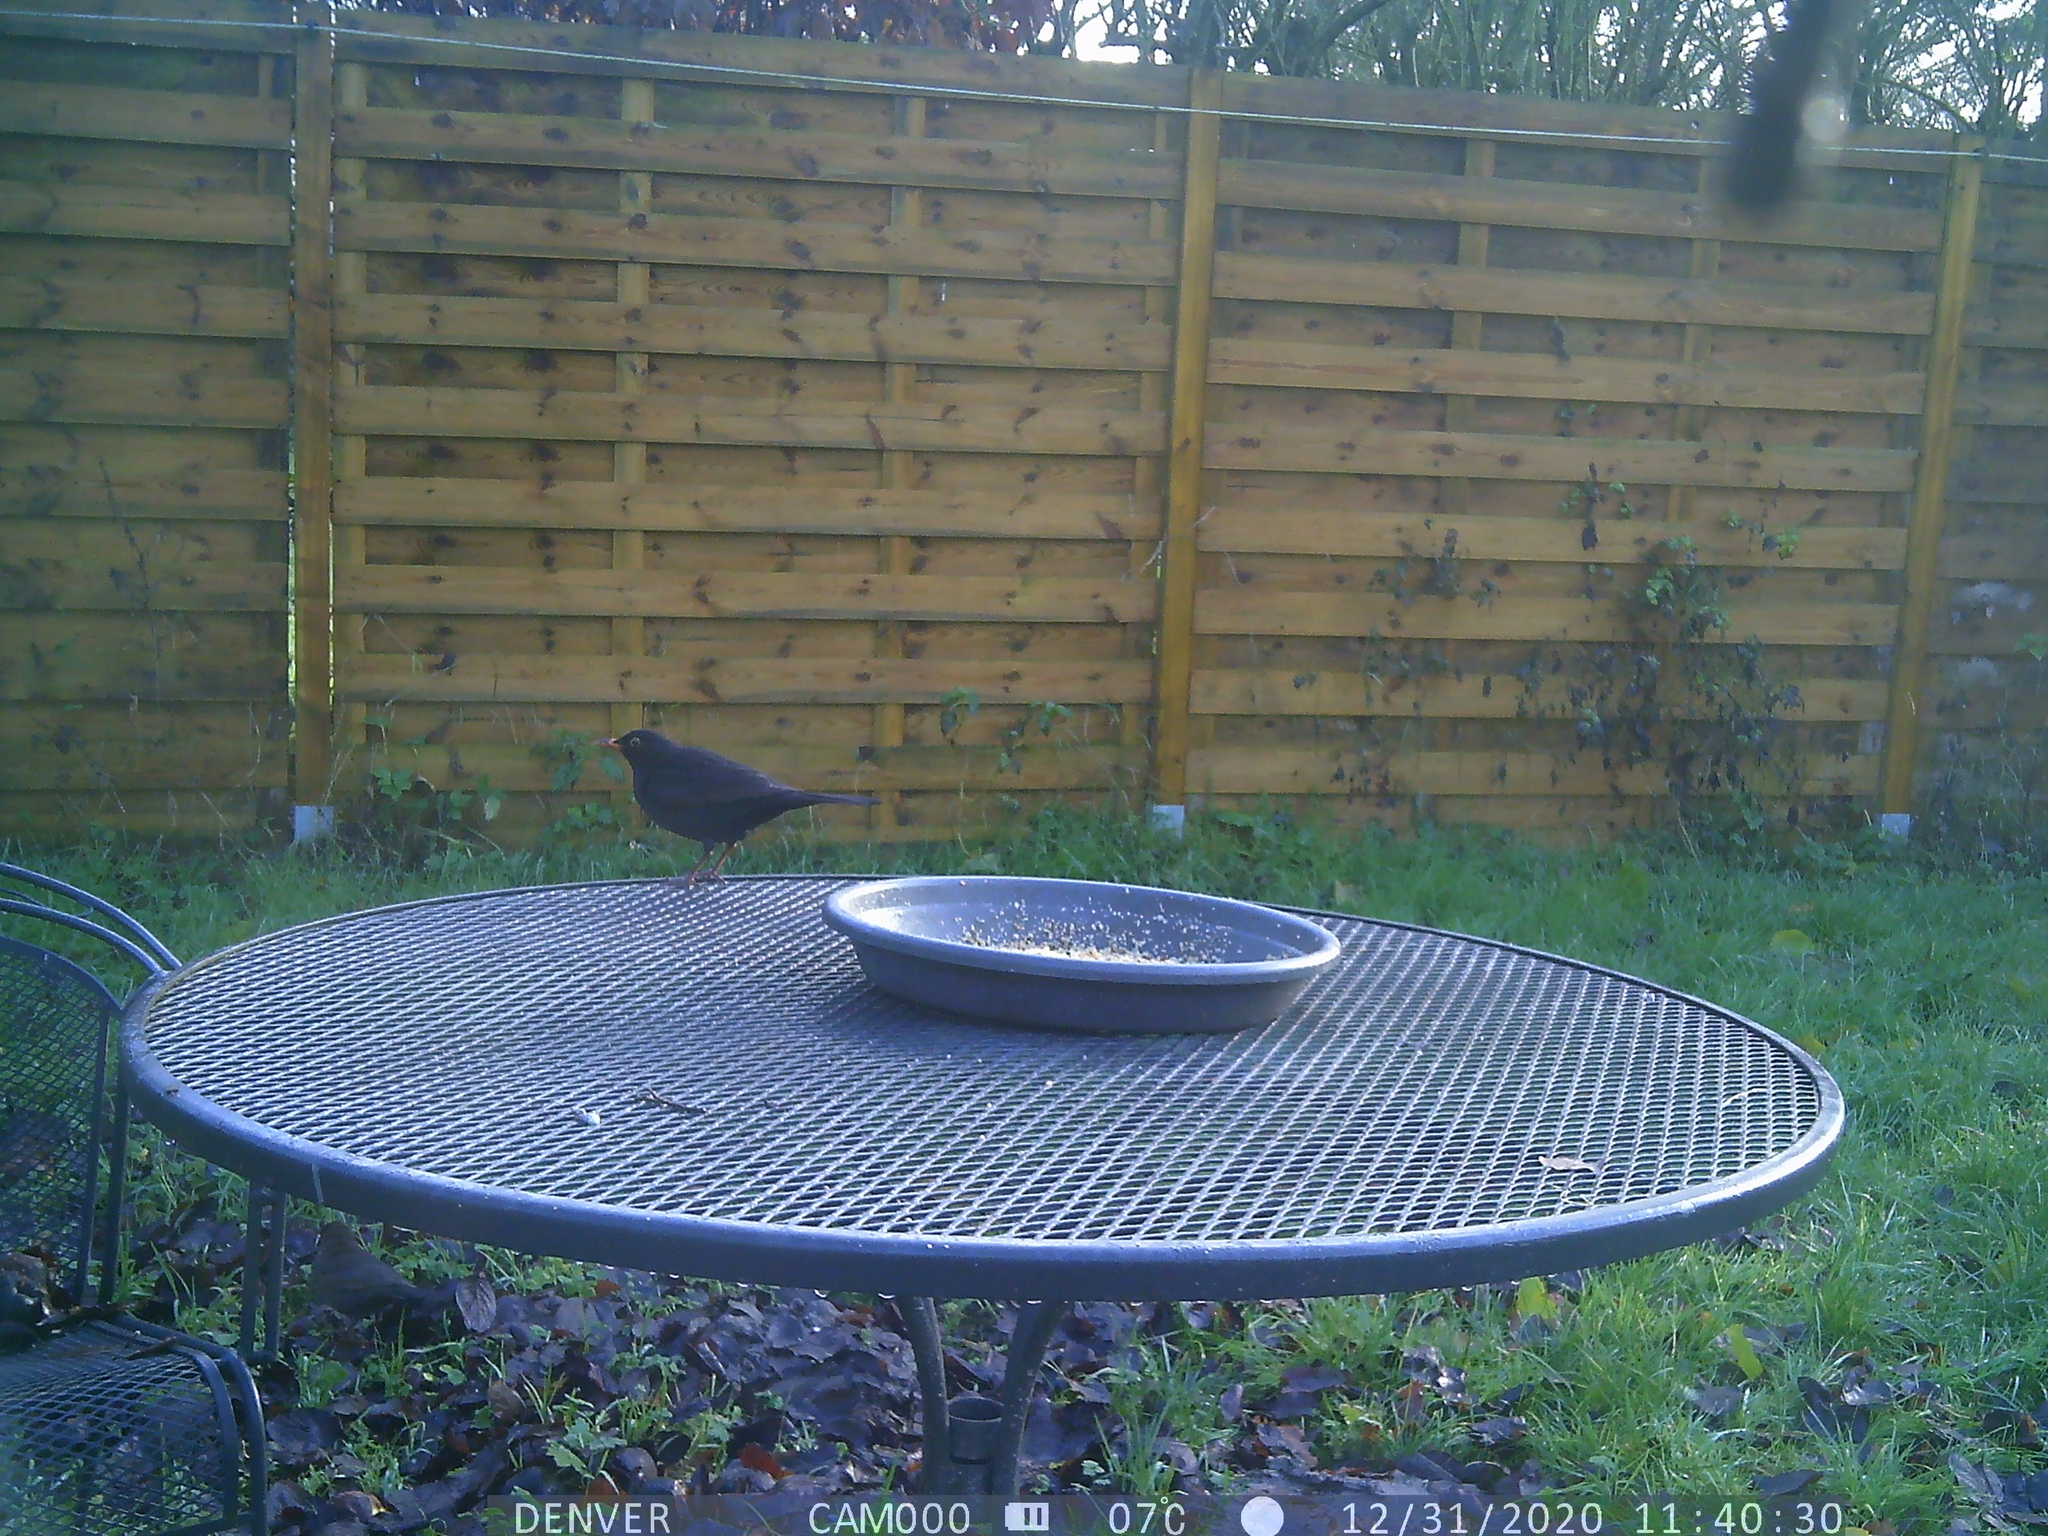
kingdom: Animalia
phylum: Chordata
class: Aves
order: Passeriformes
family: Turdidae
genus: Turdus
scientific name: Turdus merula
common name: Common blackbird
